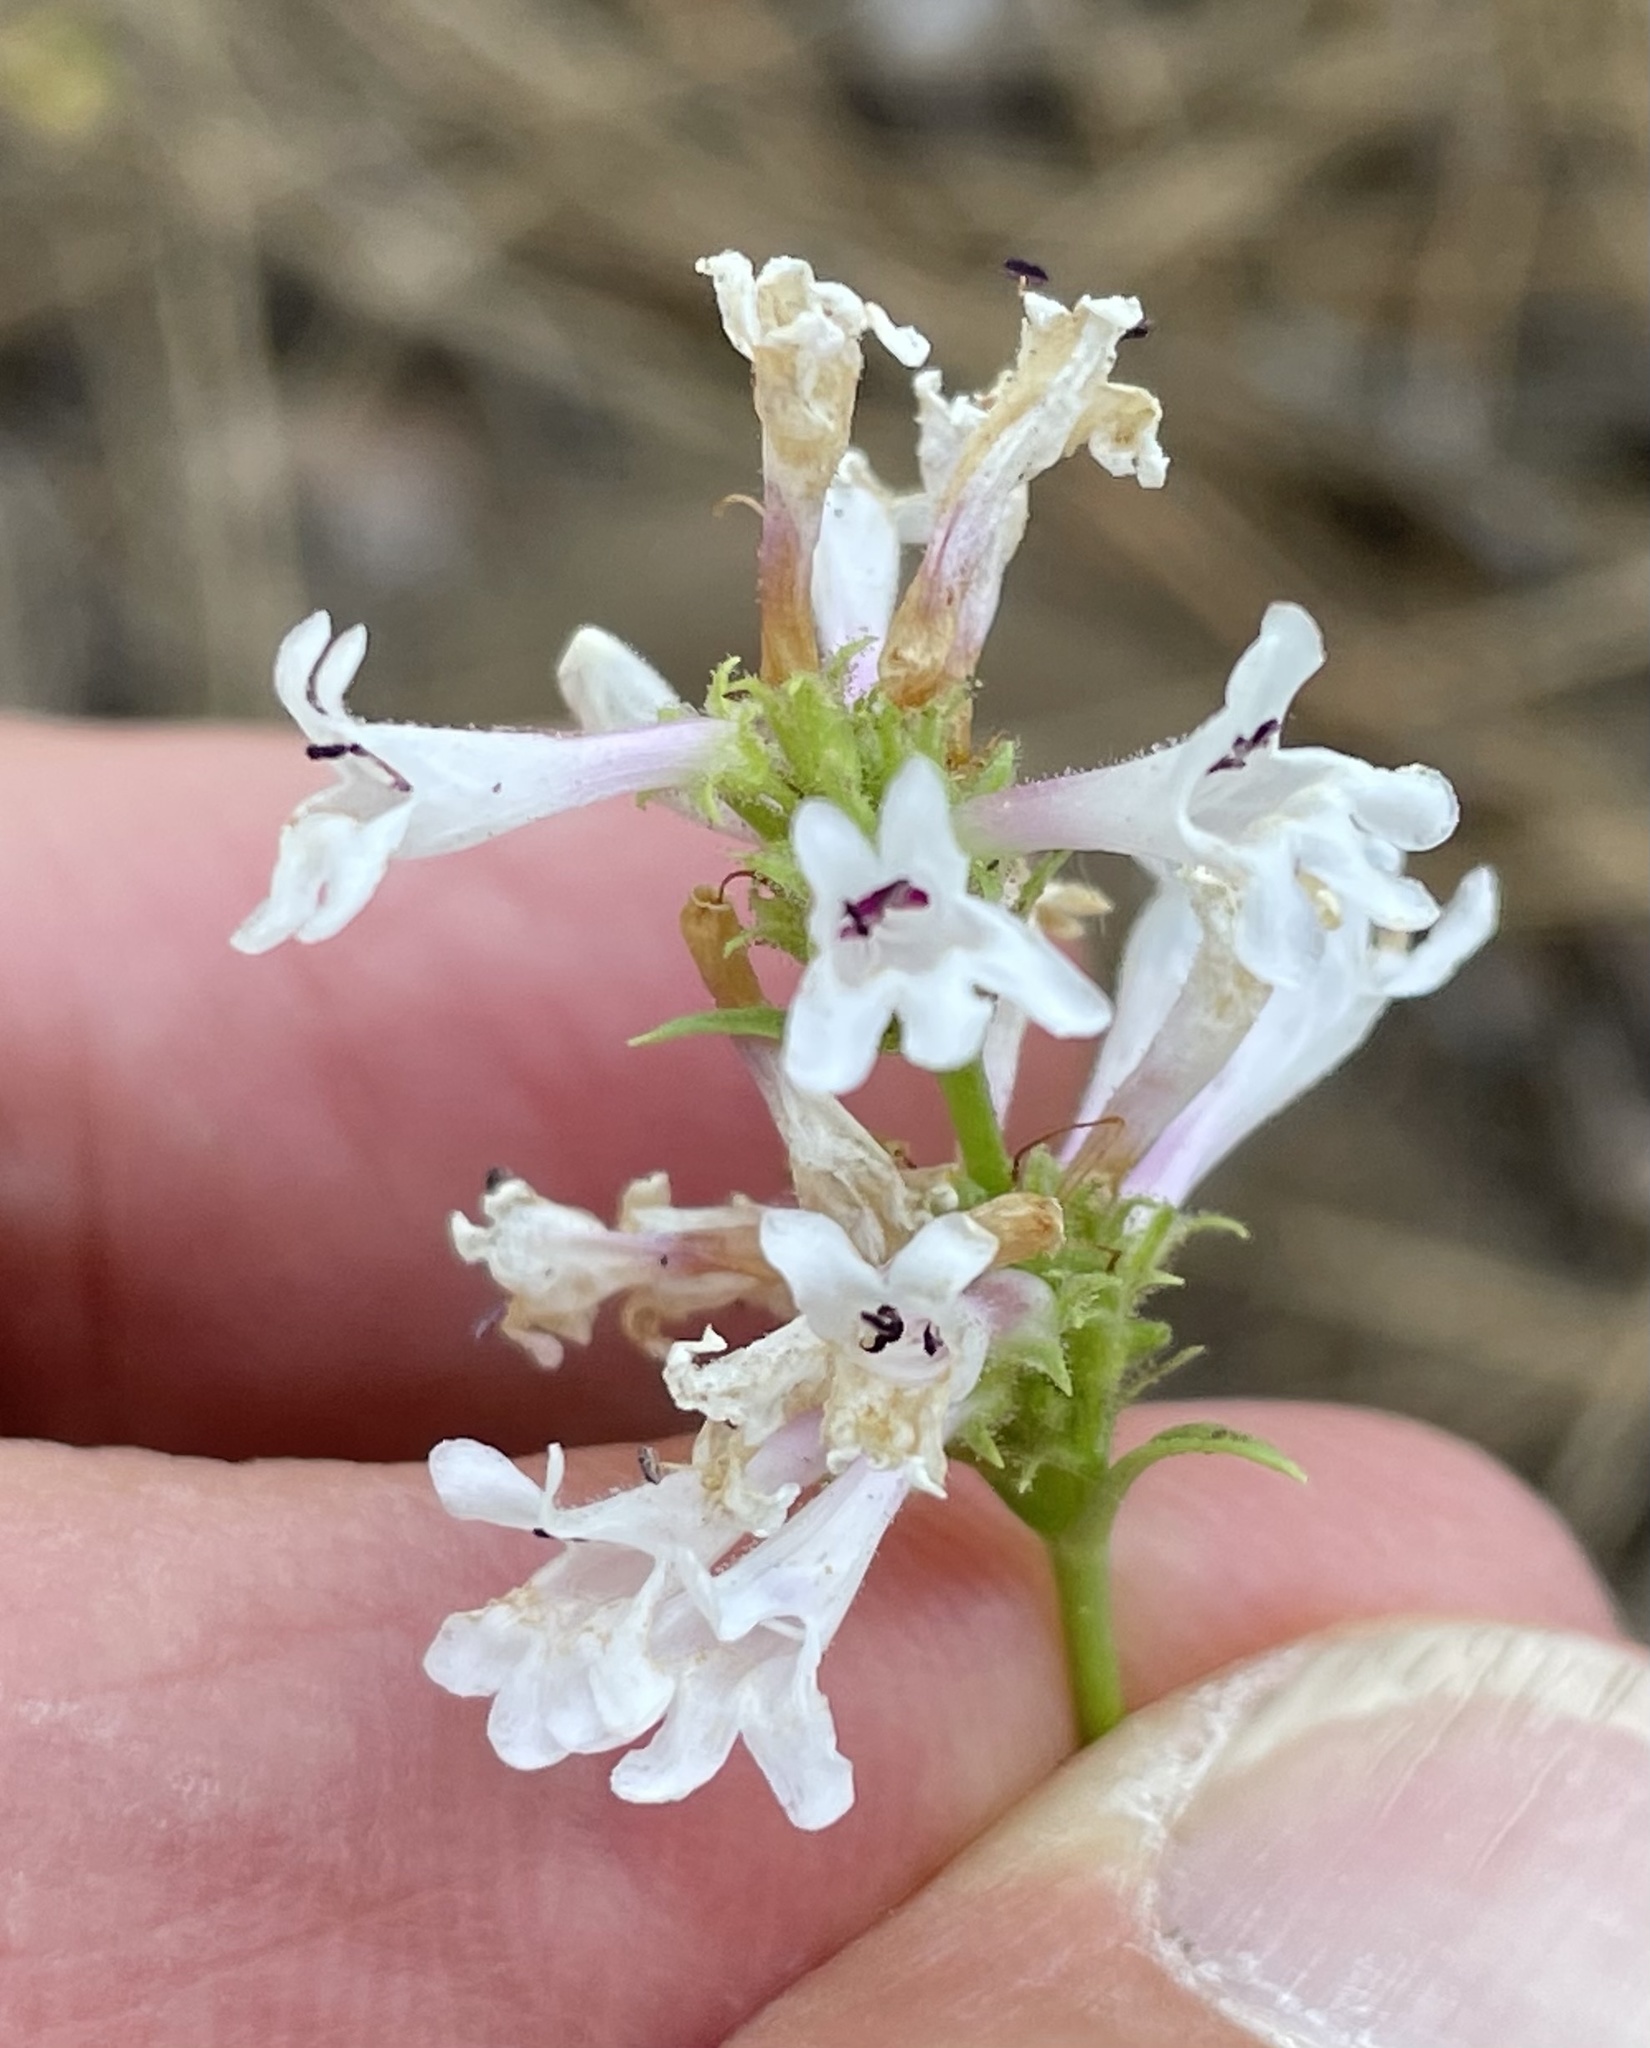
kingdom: Plantae
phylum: Tracheophyta
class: Magnoliopsida
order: Lamiales
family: Plantaginaceae
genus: Penstemon
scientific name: Penstemon peckii
